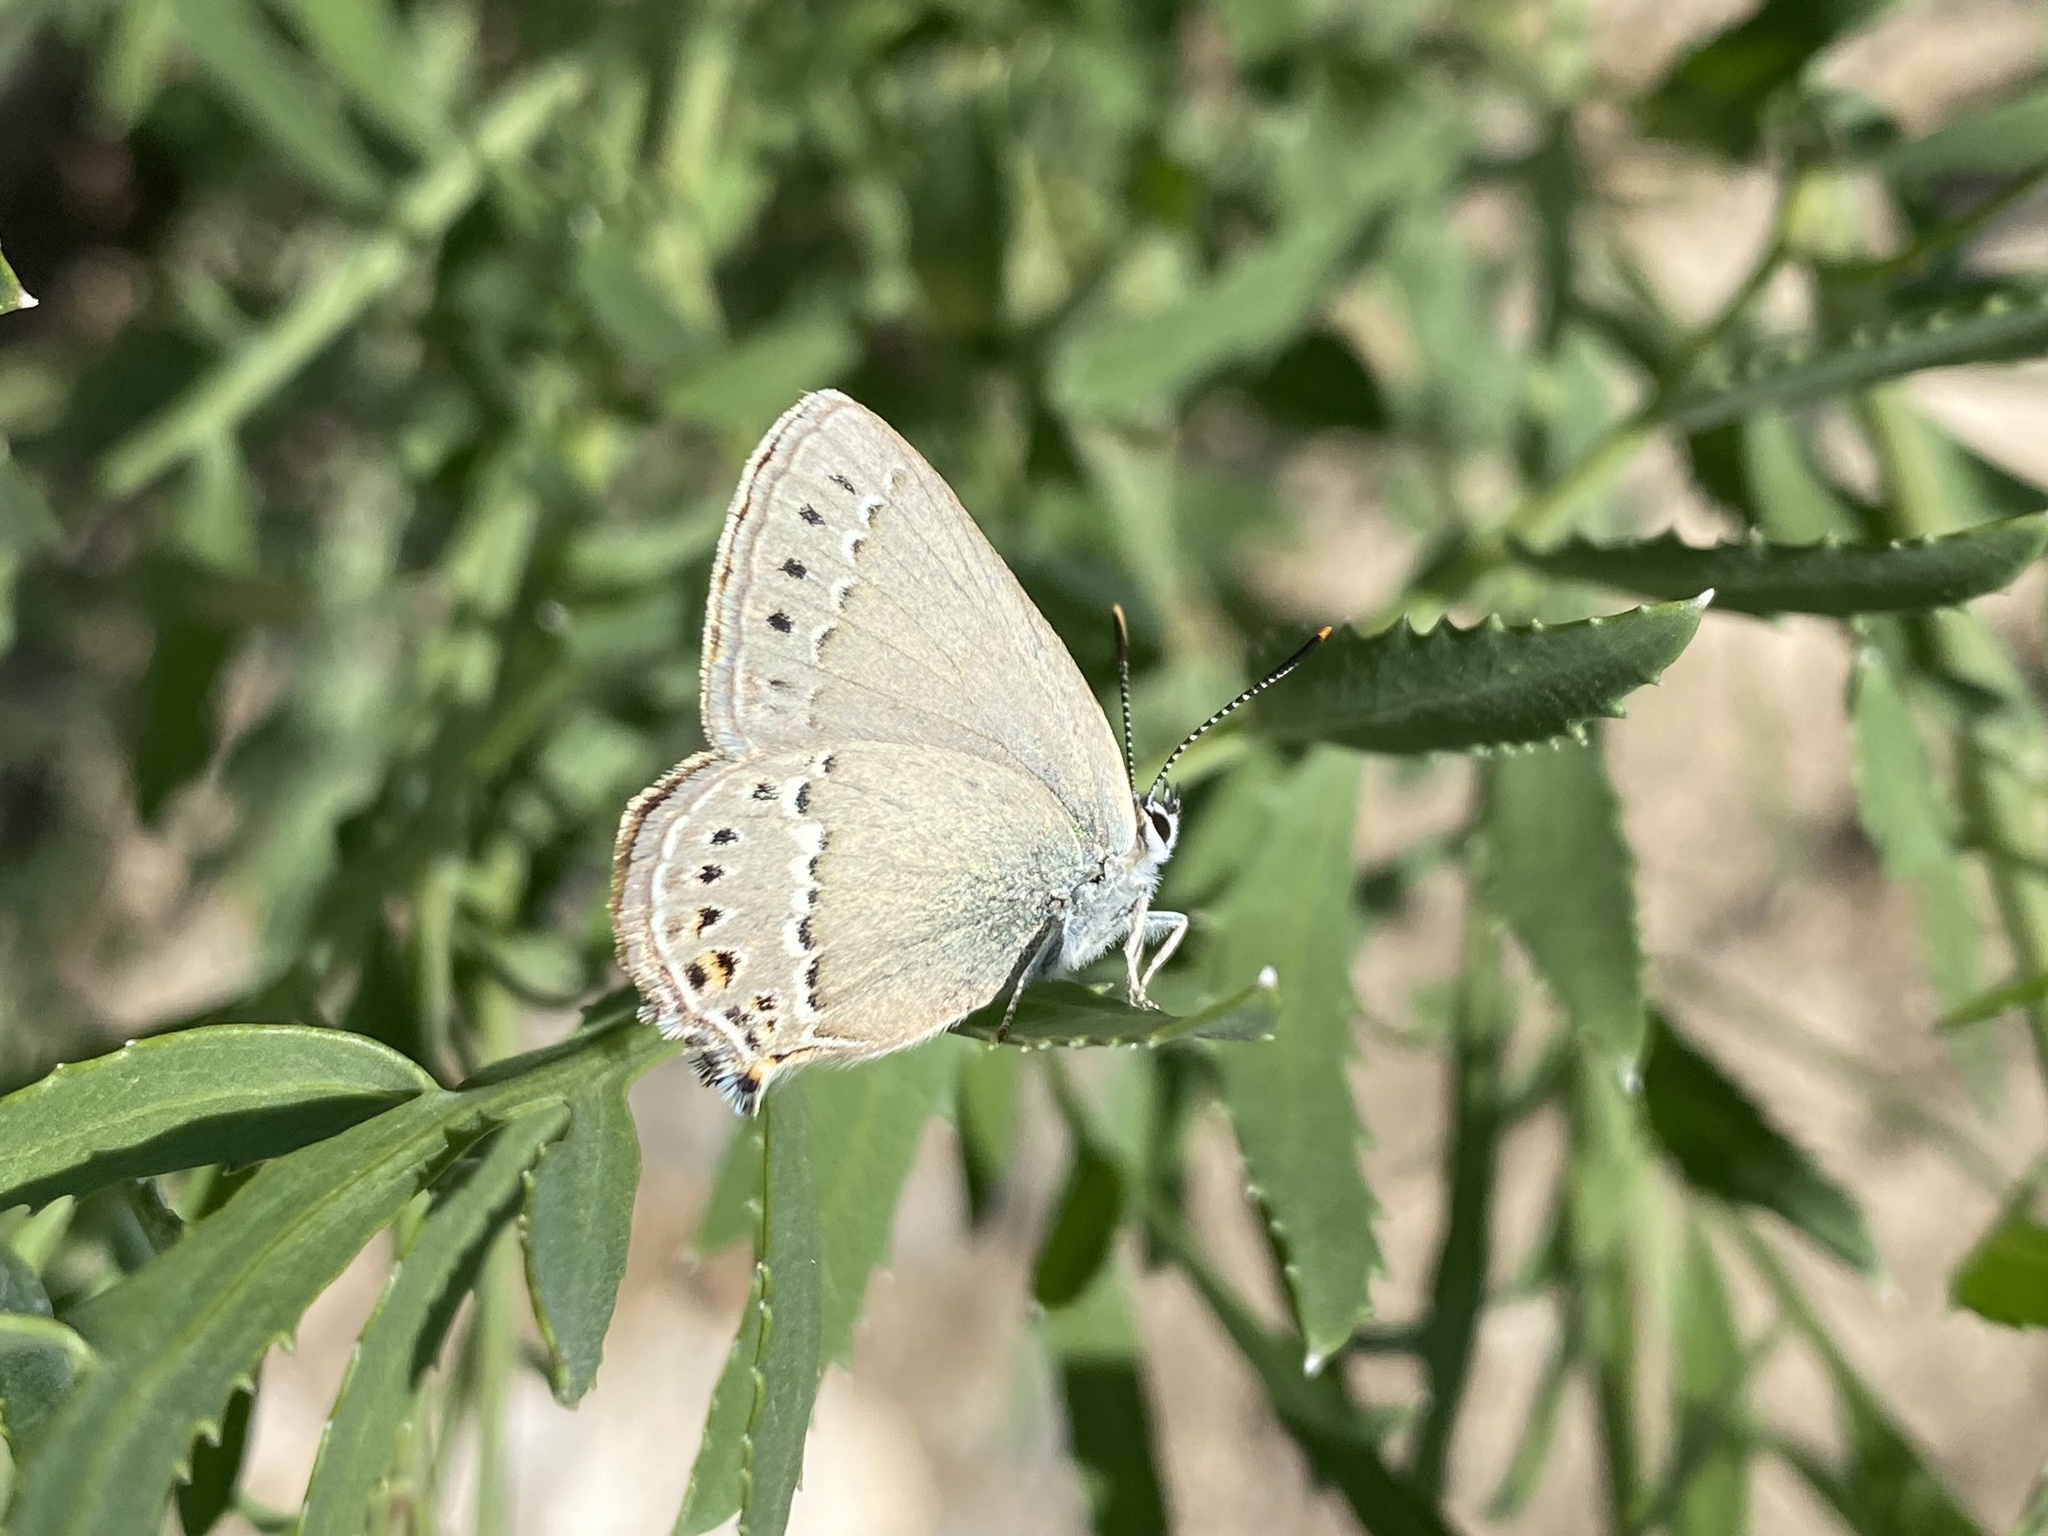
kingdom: Animalia
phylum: Arthropoda
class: Insecta
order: Lepidoptera
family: Lycaenidae
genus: Satyrium
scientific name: Satyrium
